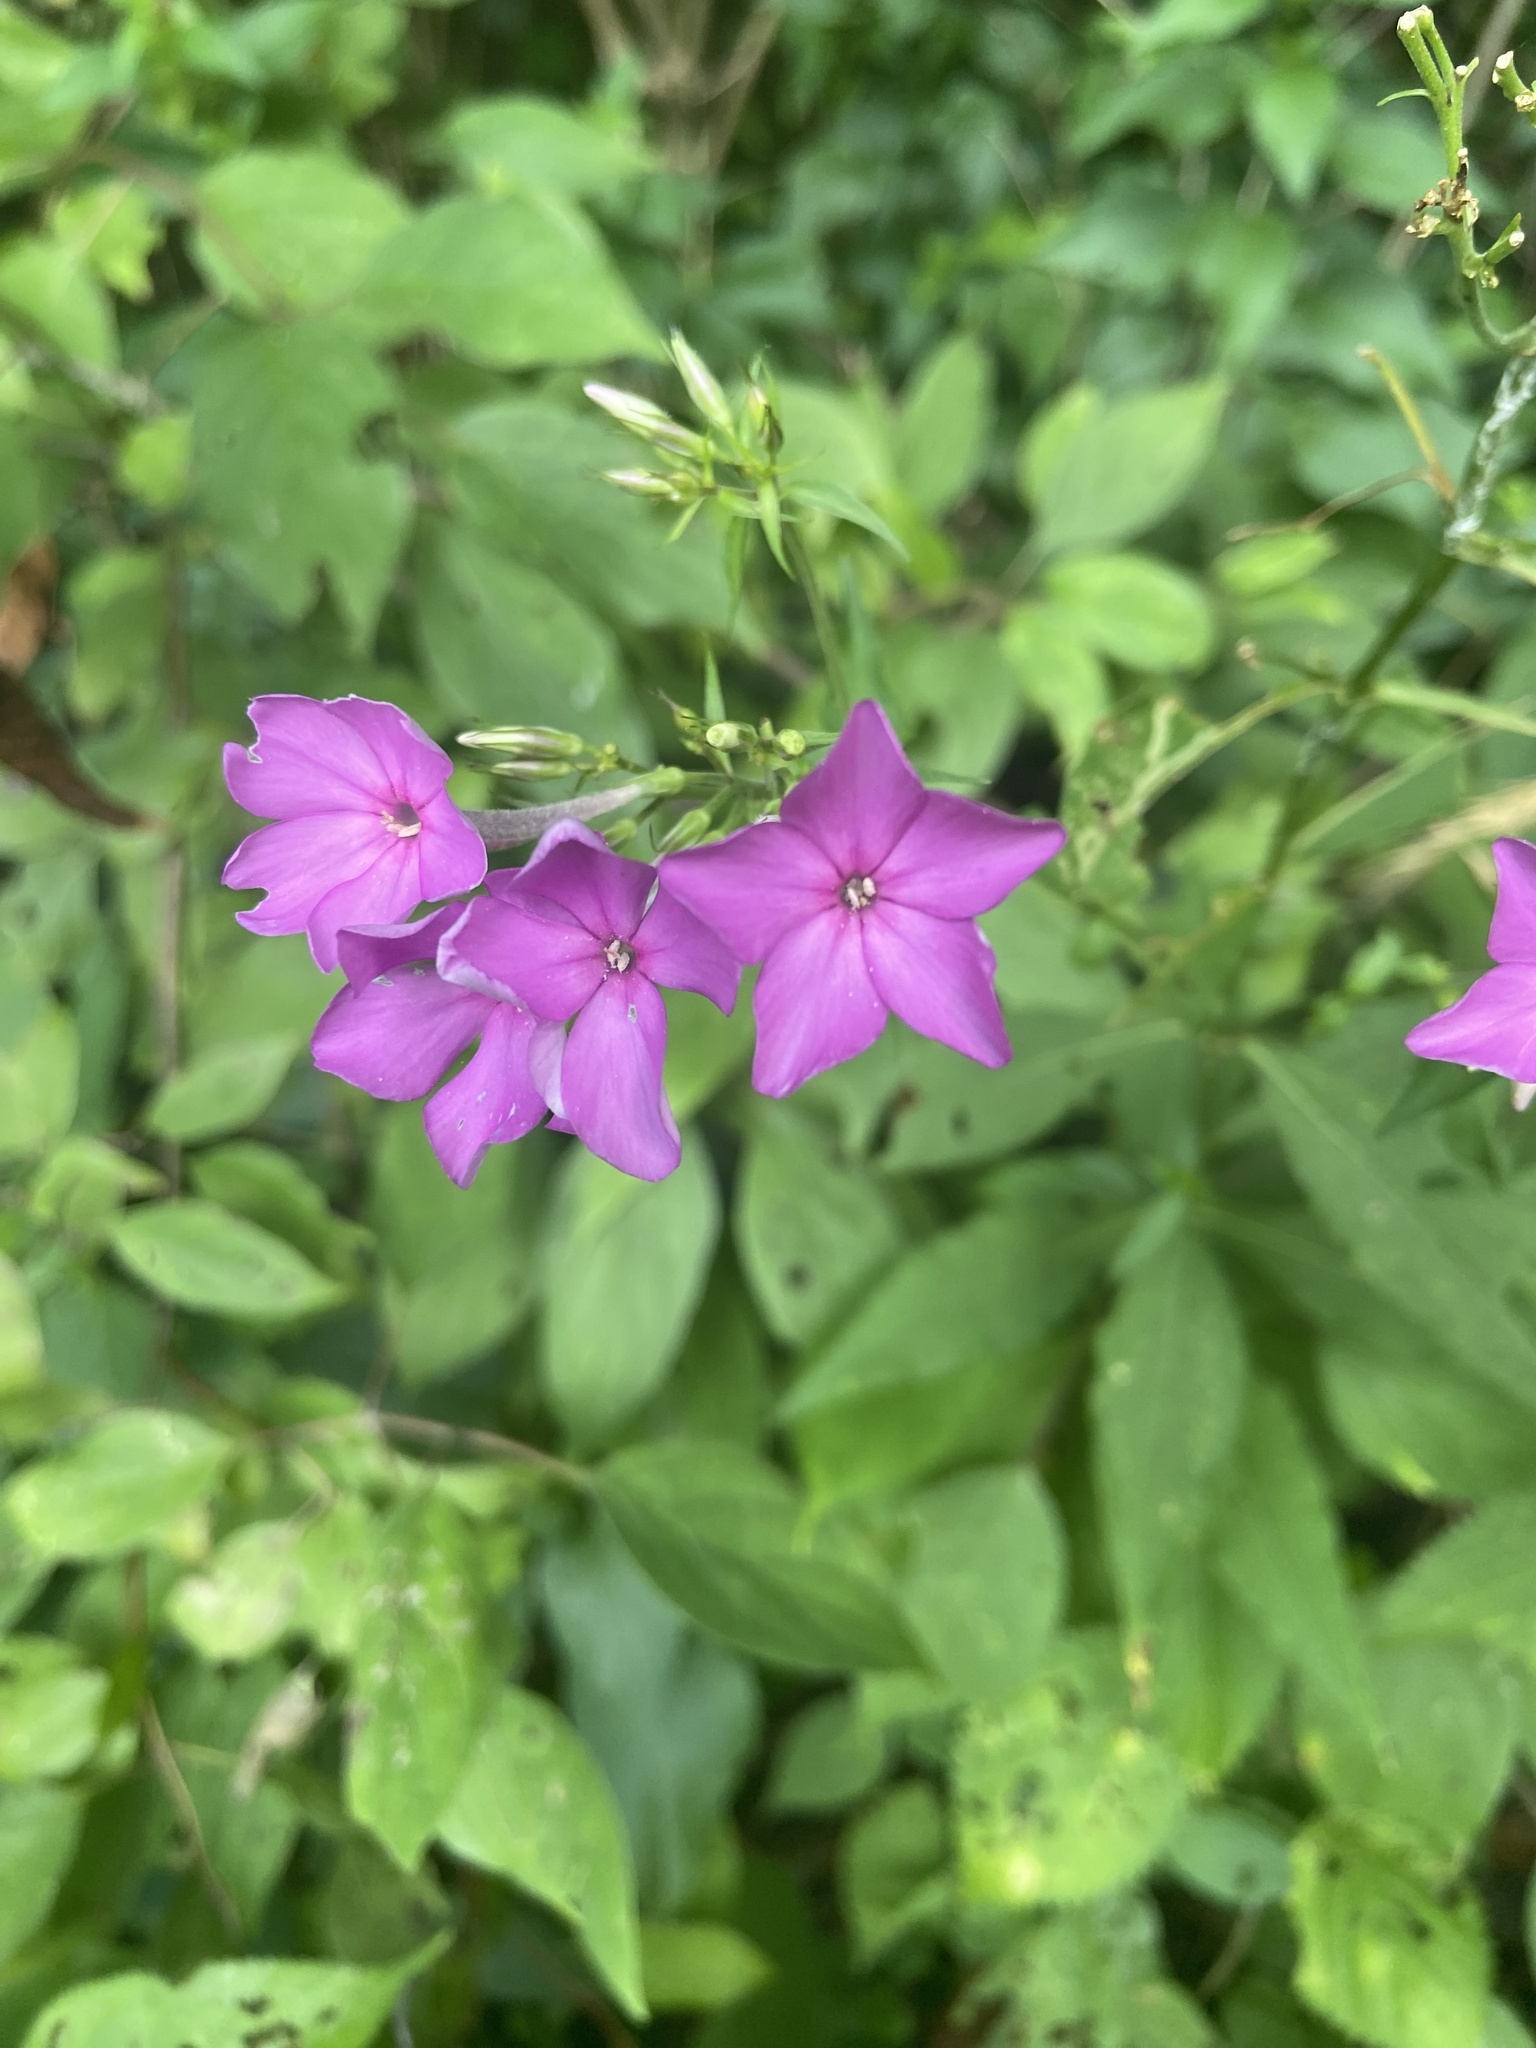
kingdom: Plantae
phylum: Tracheophyta
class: Magnoliopsida
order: Ericales
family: Polemoniaceae
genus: Phlox
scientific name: Phlox paniculata
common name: Fall phlox
